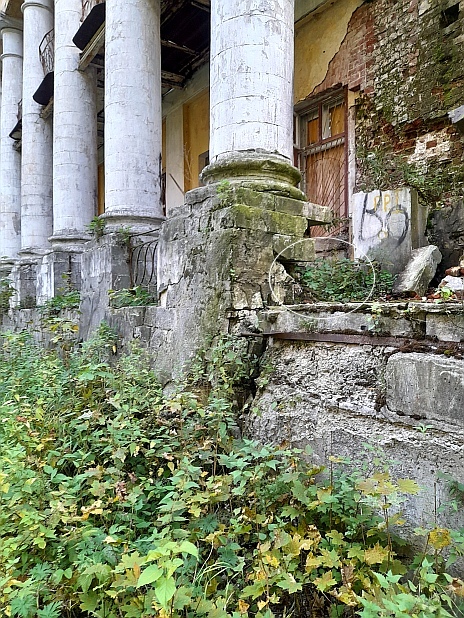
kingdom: Plantae
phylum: Tracheophyta
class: Magnoliopsida
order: Ranunculales
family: Papaveraceae
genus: Chelidonium
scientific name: Chelidonium majus
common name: Greater celandine
